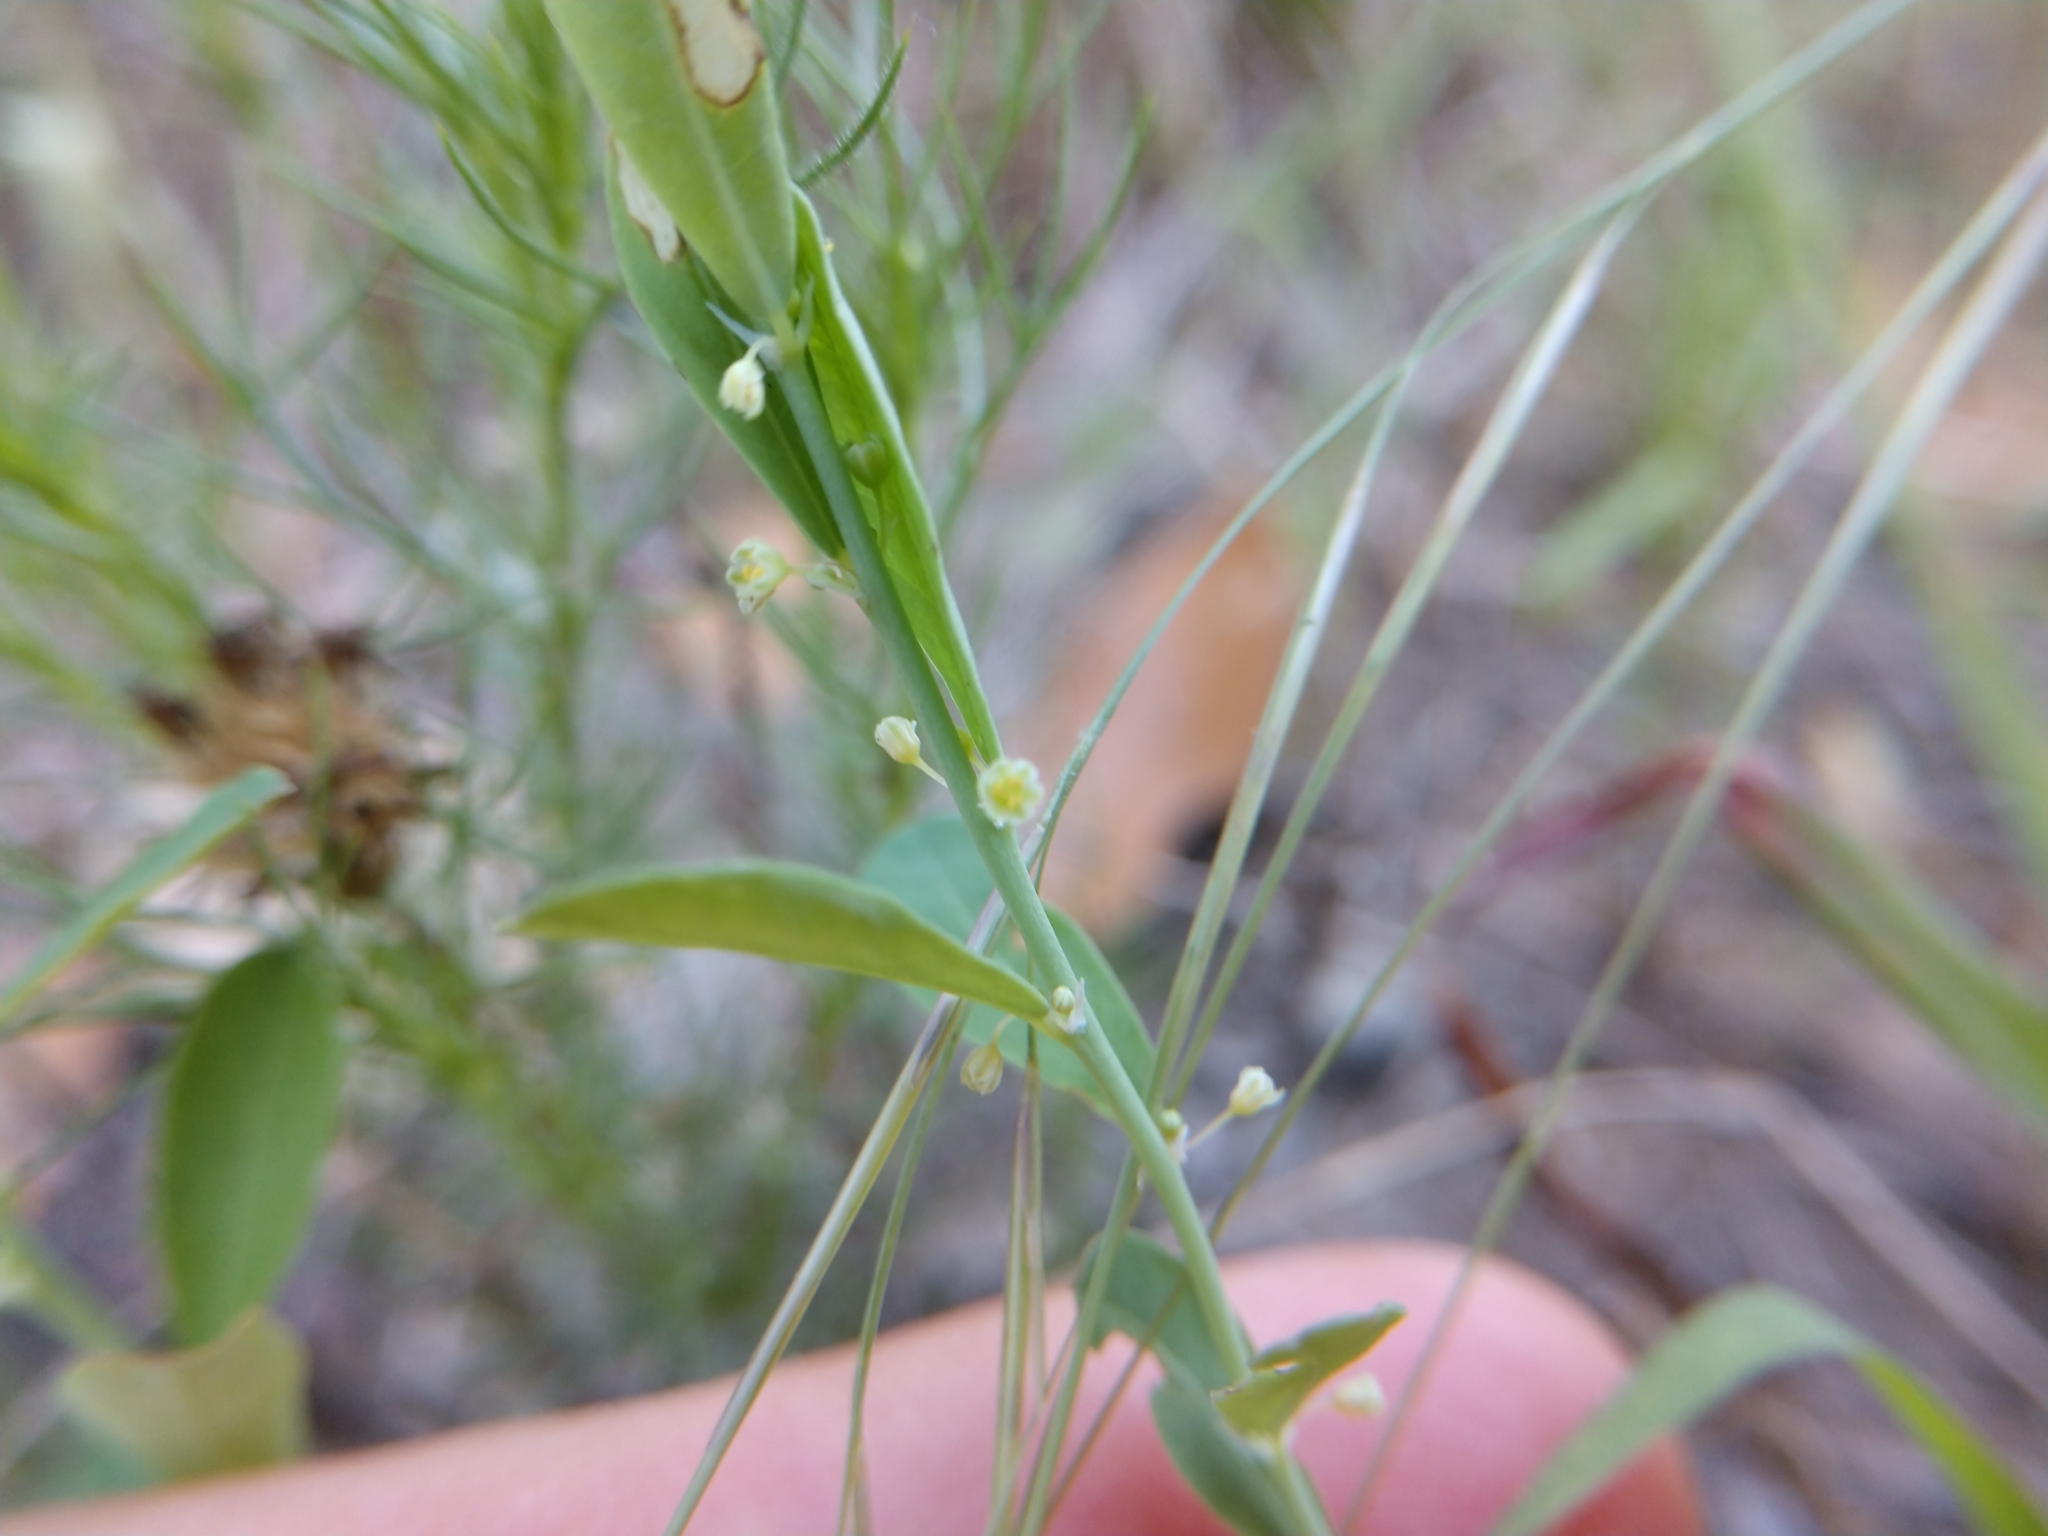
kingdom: Plantae
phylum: Tracheophyta
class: Magnoliopsida
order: Malpighiales
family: Phyllanthaceae
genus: Phyllanthus
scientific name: Phyllanthus polygonoides
